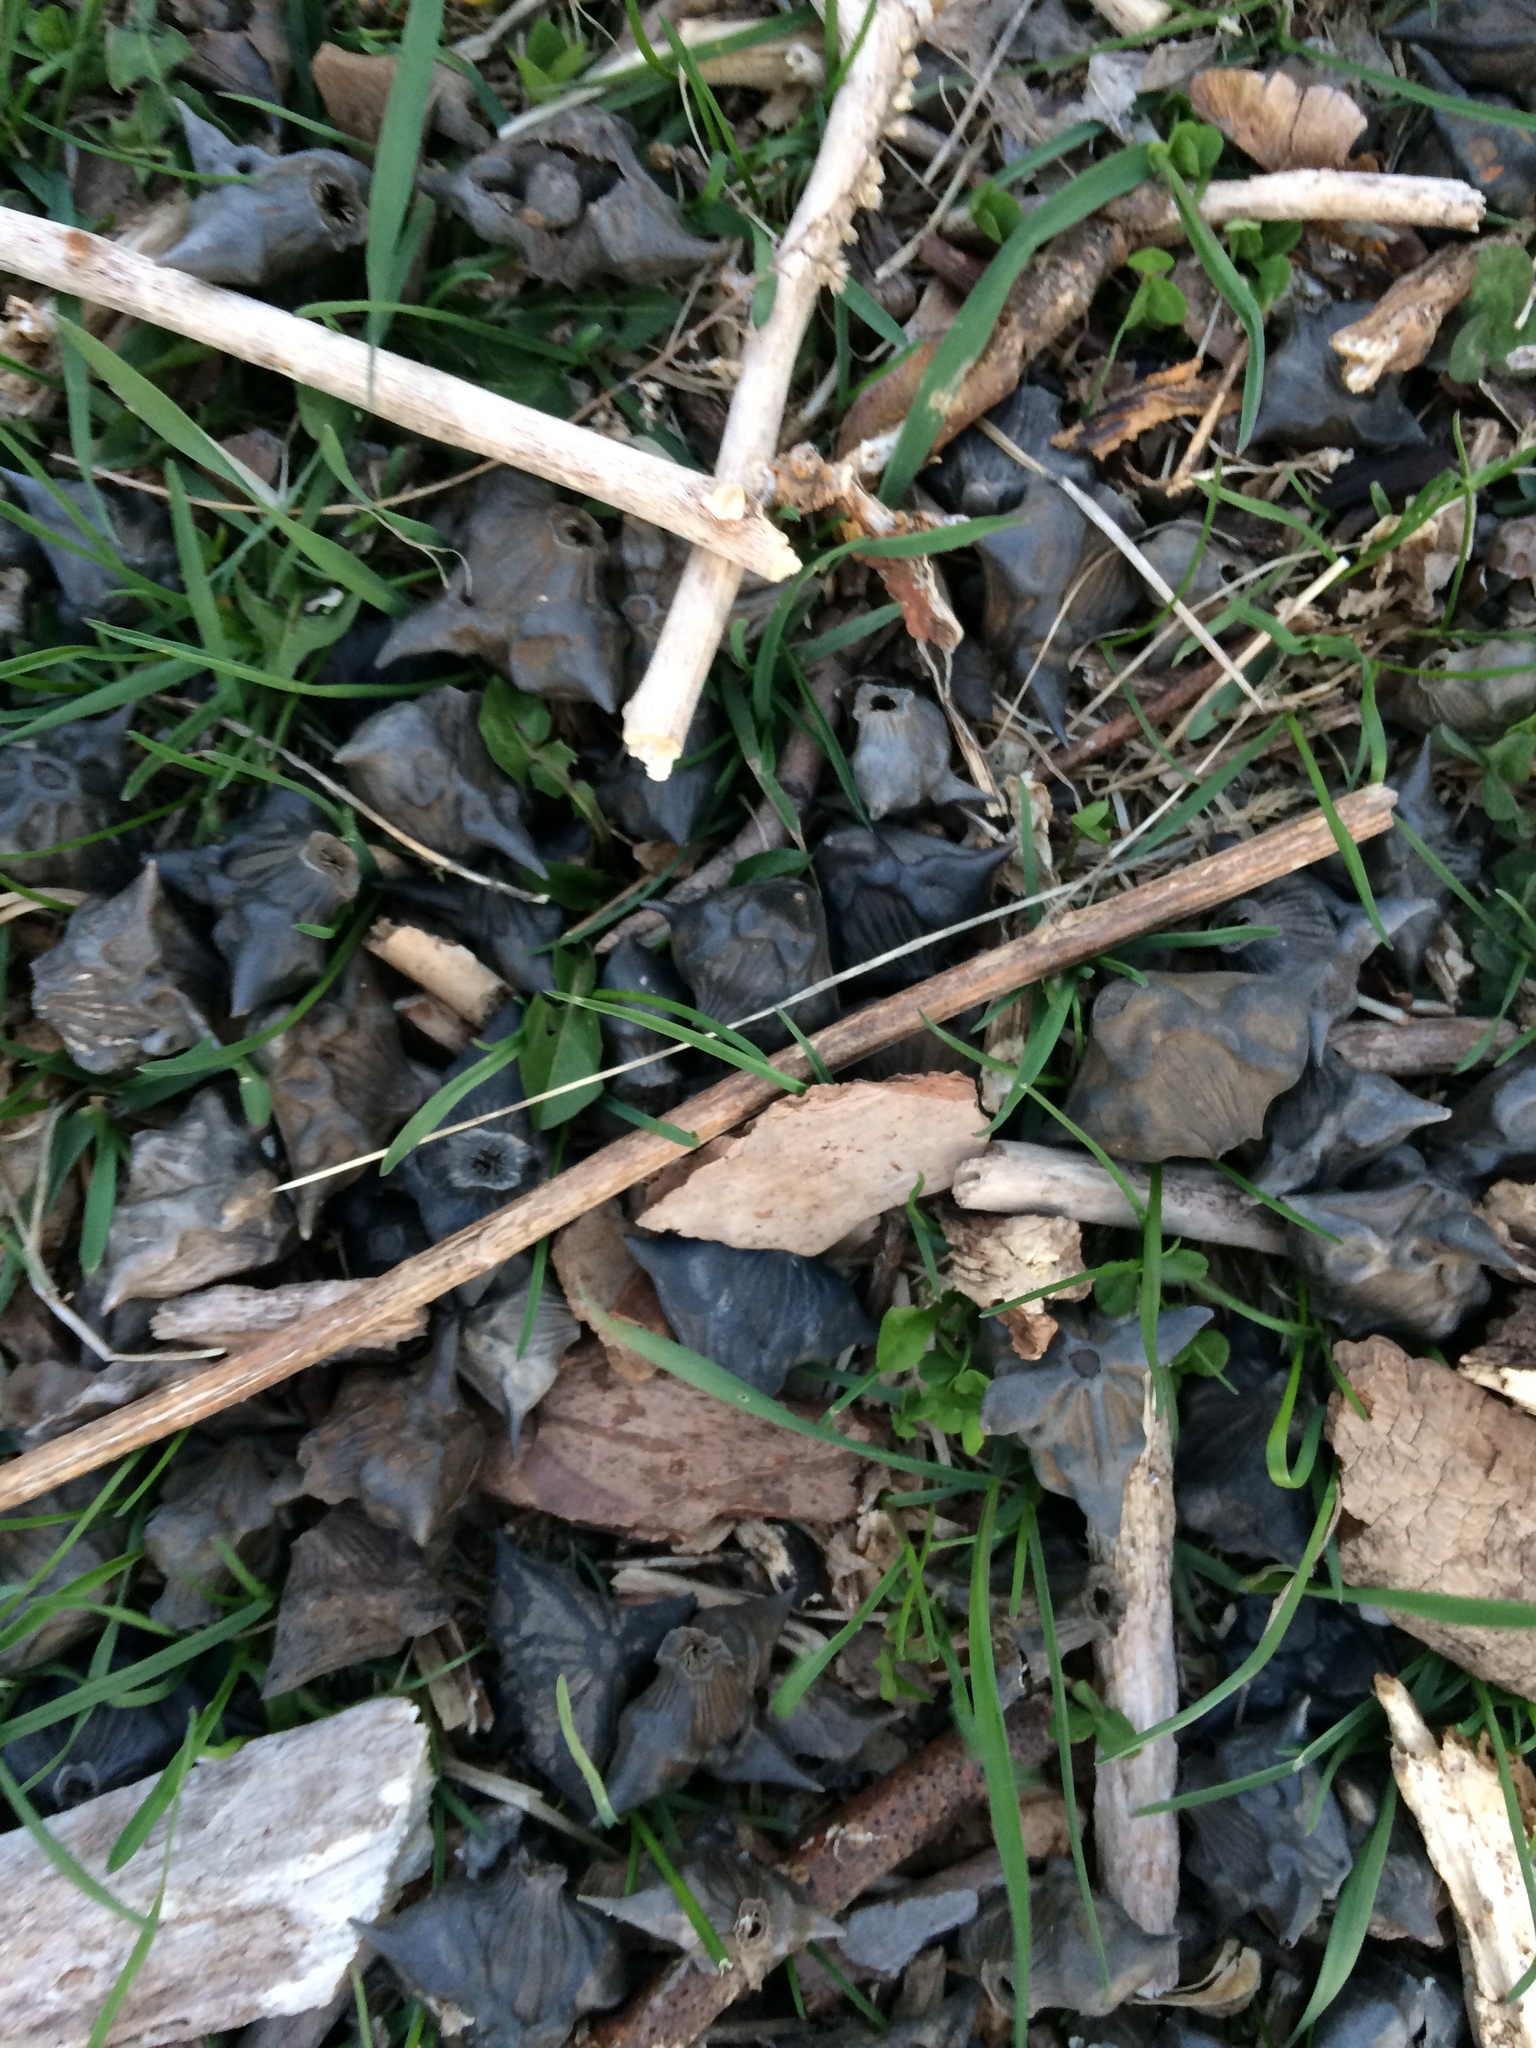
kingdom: Plantae
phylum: Tracheophyta
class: Magnoliopsida
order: Myrtales
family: Lythraceae
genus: Trapa
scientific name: Trapa natans
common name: Water chestnut
